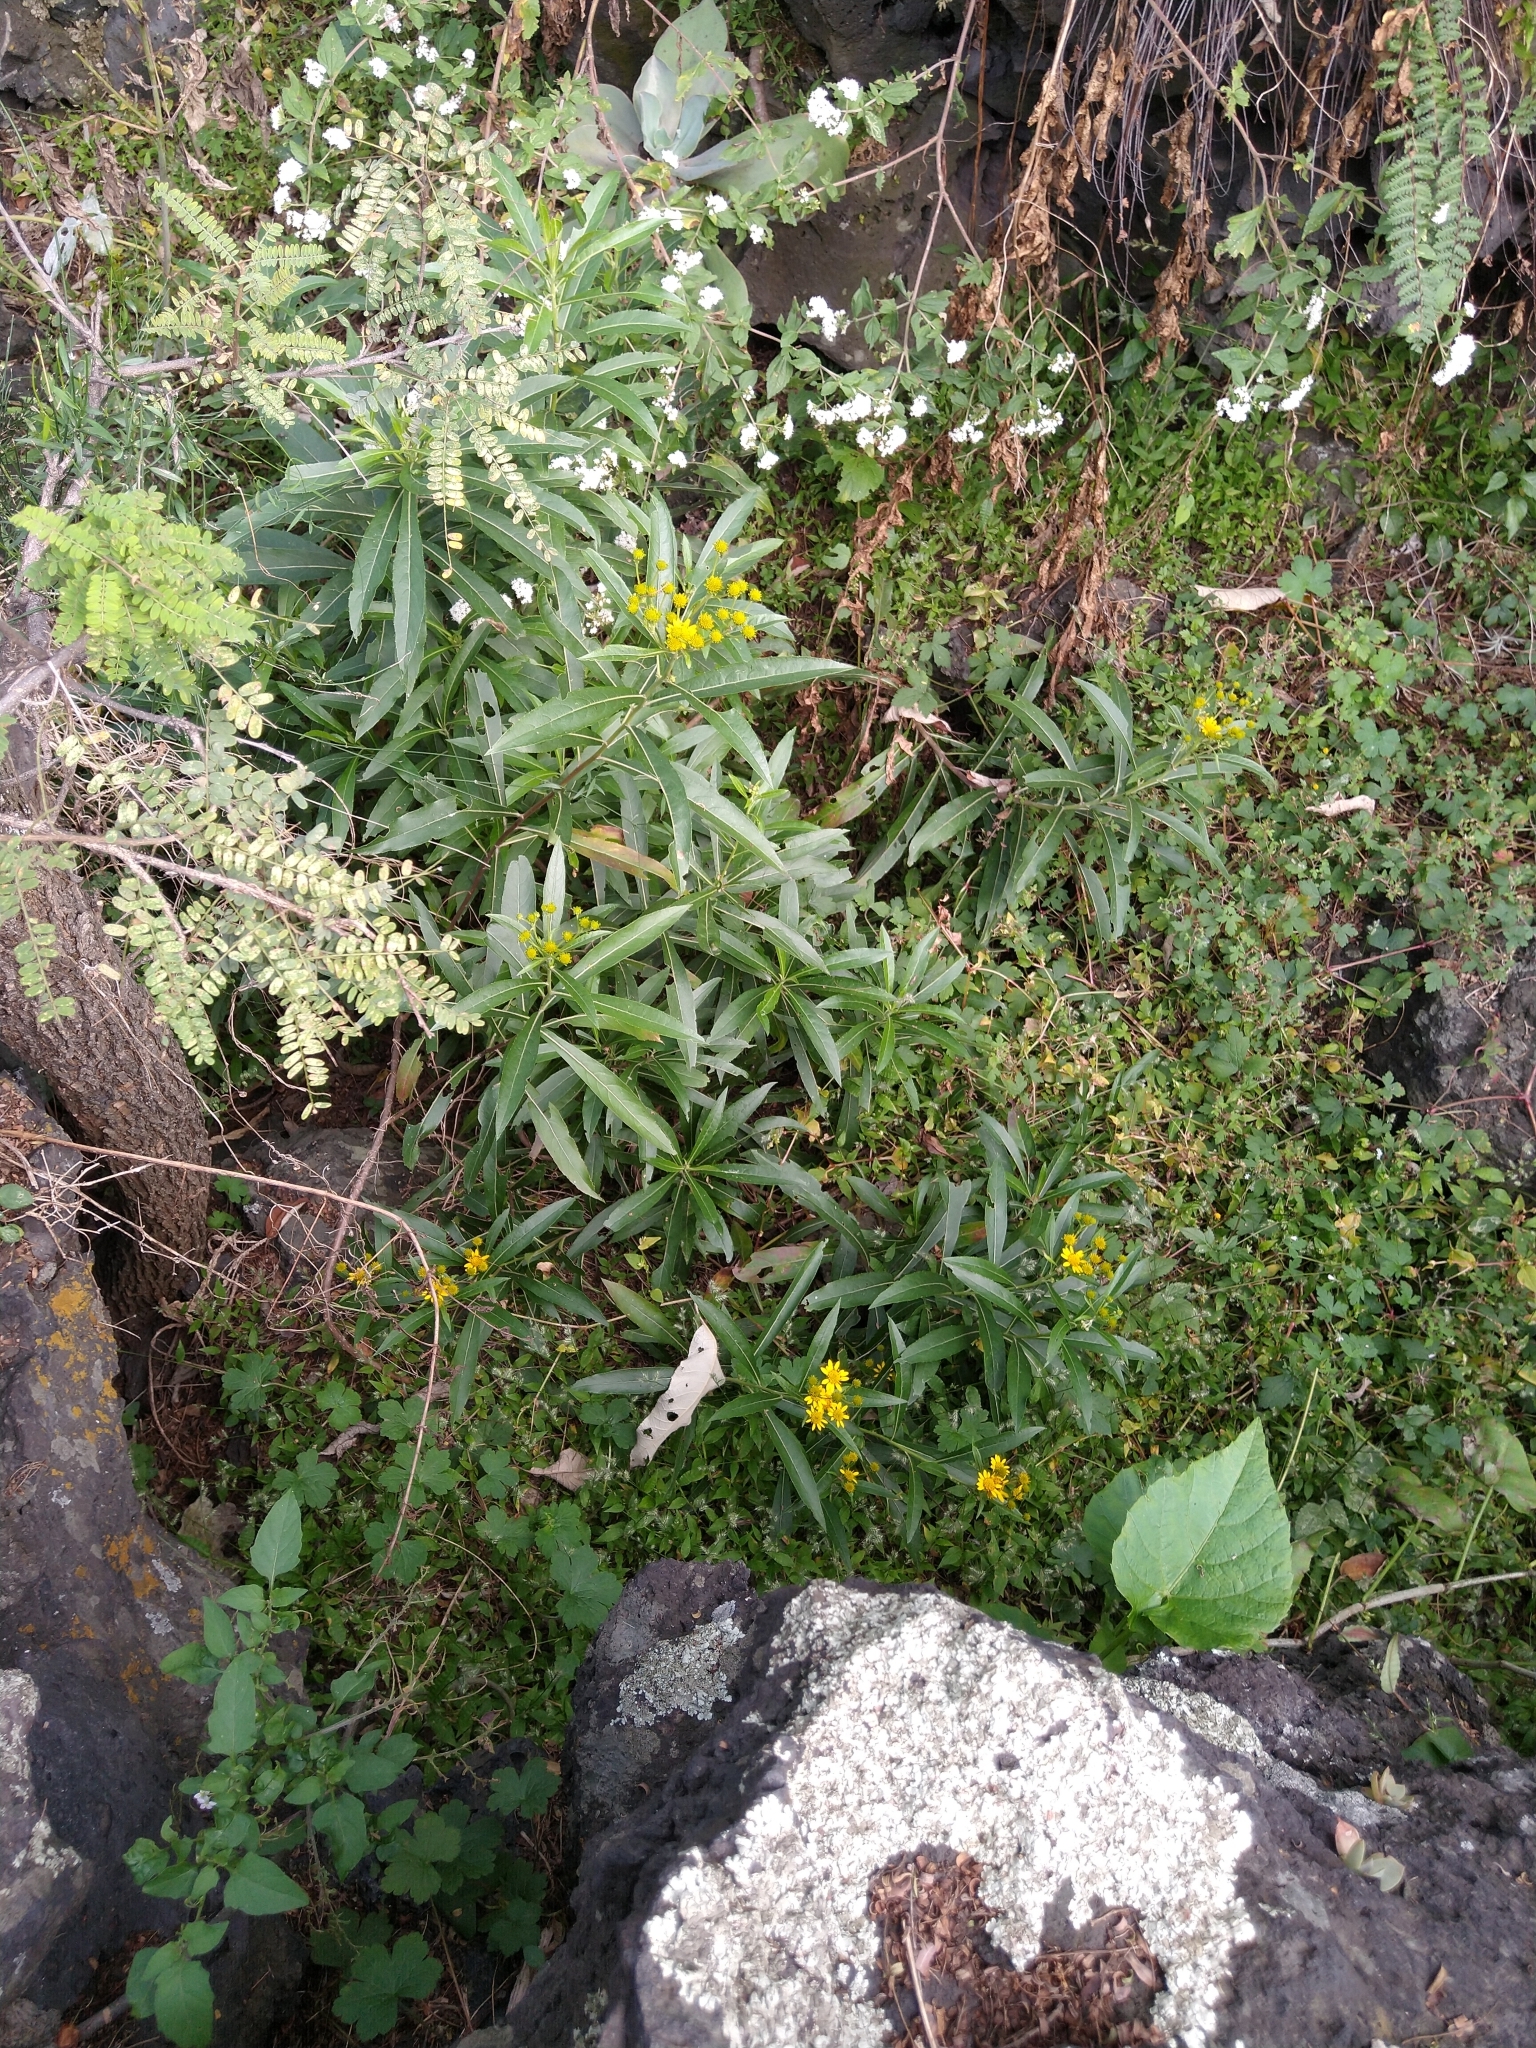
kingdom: Plantae
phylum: Tracheophyta
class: Magnoliopsida
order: Asterales
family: Asteraceae
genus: Verbesina
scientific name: Verbesina virgata
